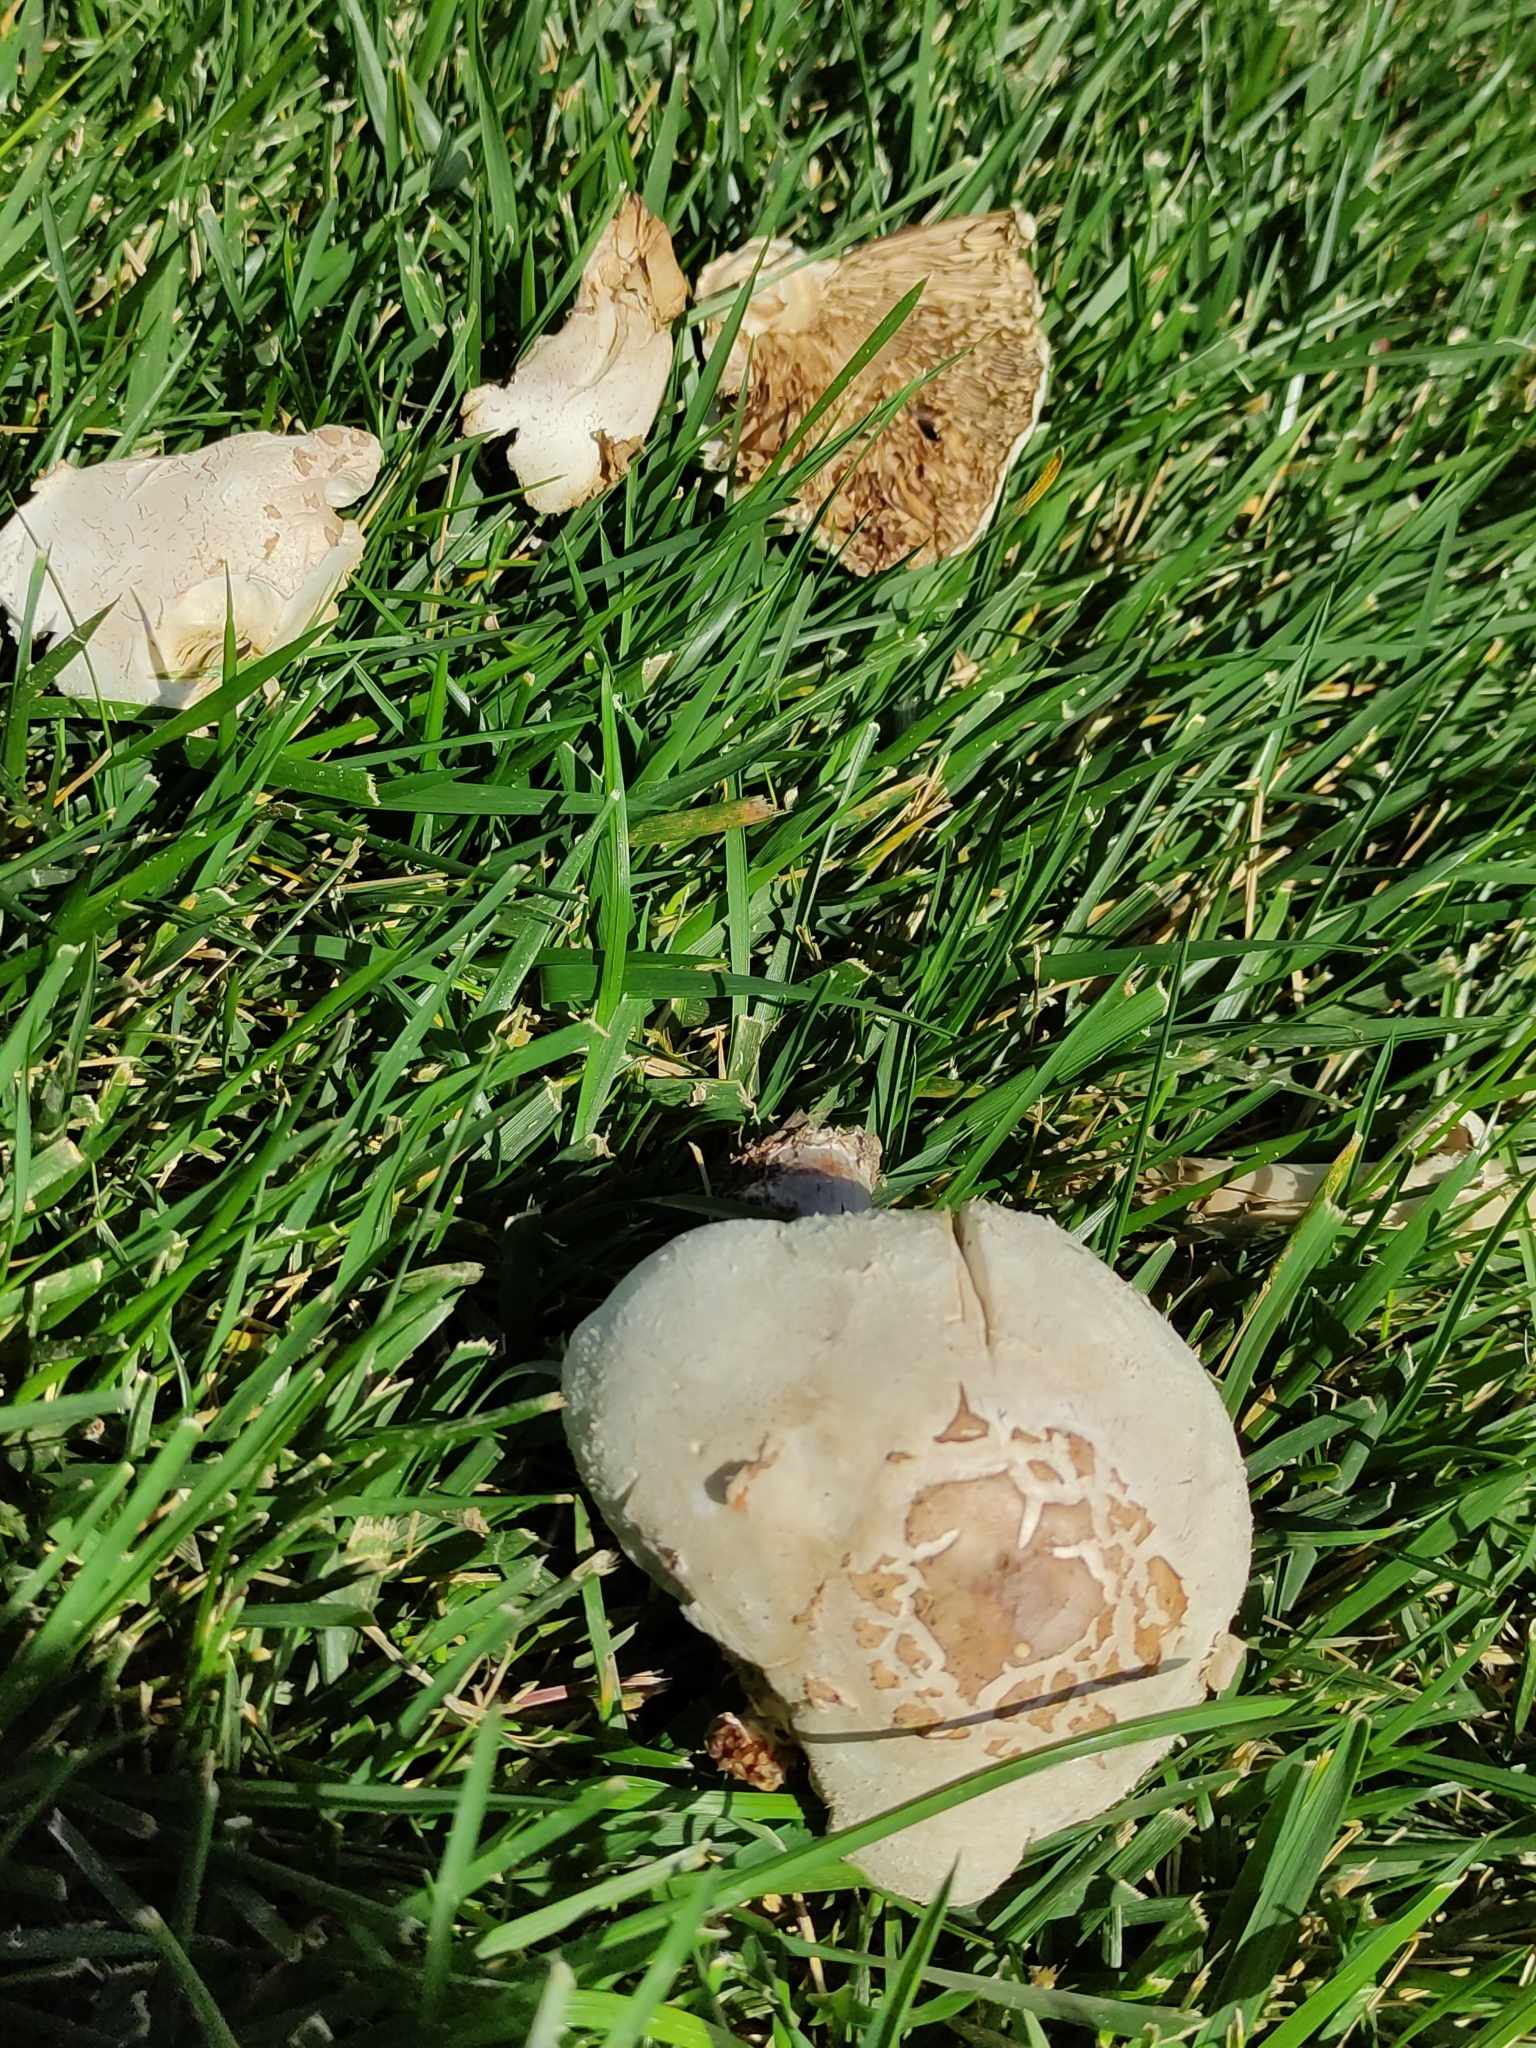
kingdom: Fungi
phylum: Basidiomycota
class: Agaricomycetes
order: Agaricales
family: Agaricaceae
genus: Chlorophyllum
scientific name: Chlorophyllum molybdites
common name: False parasol
